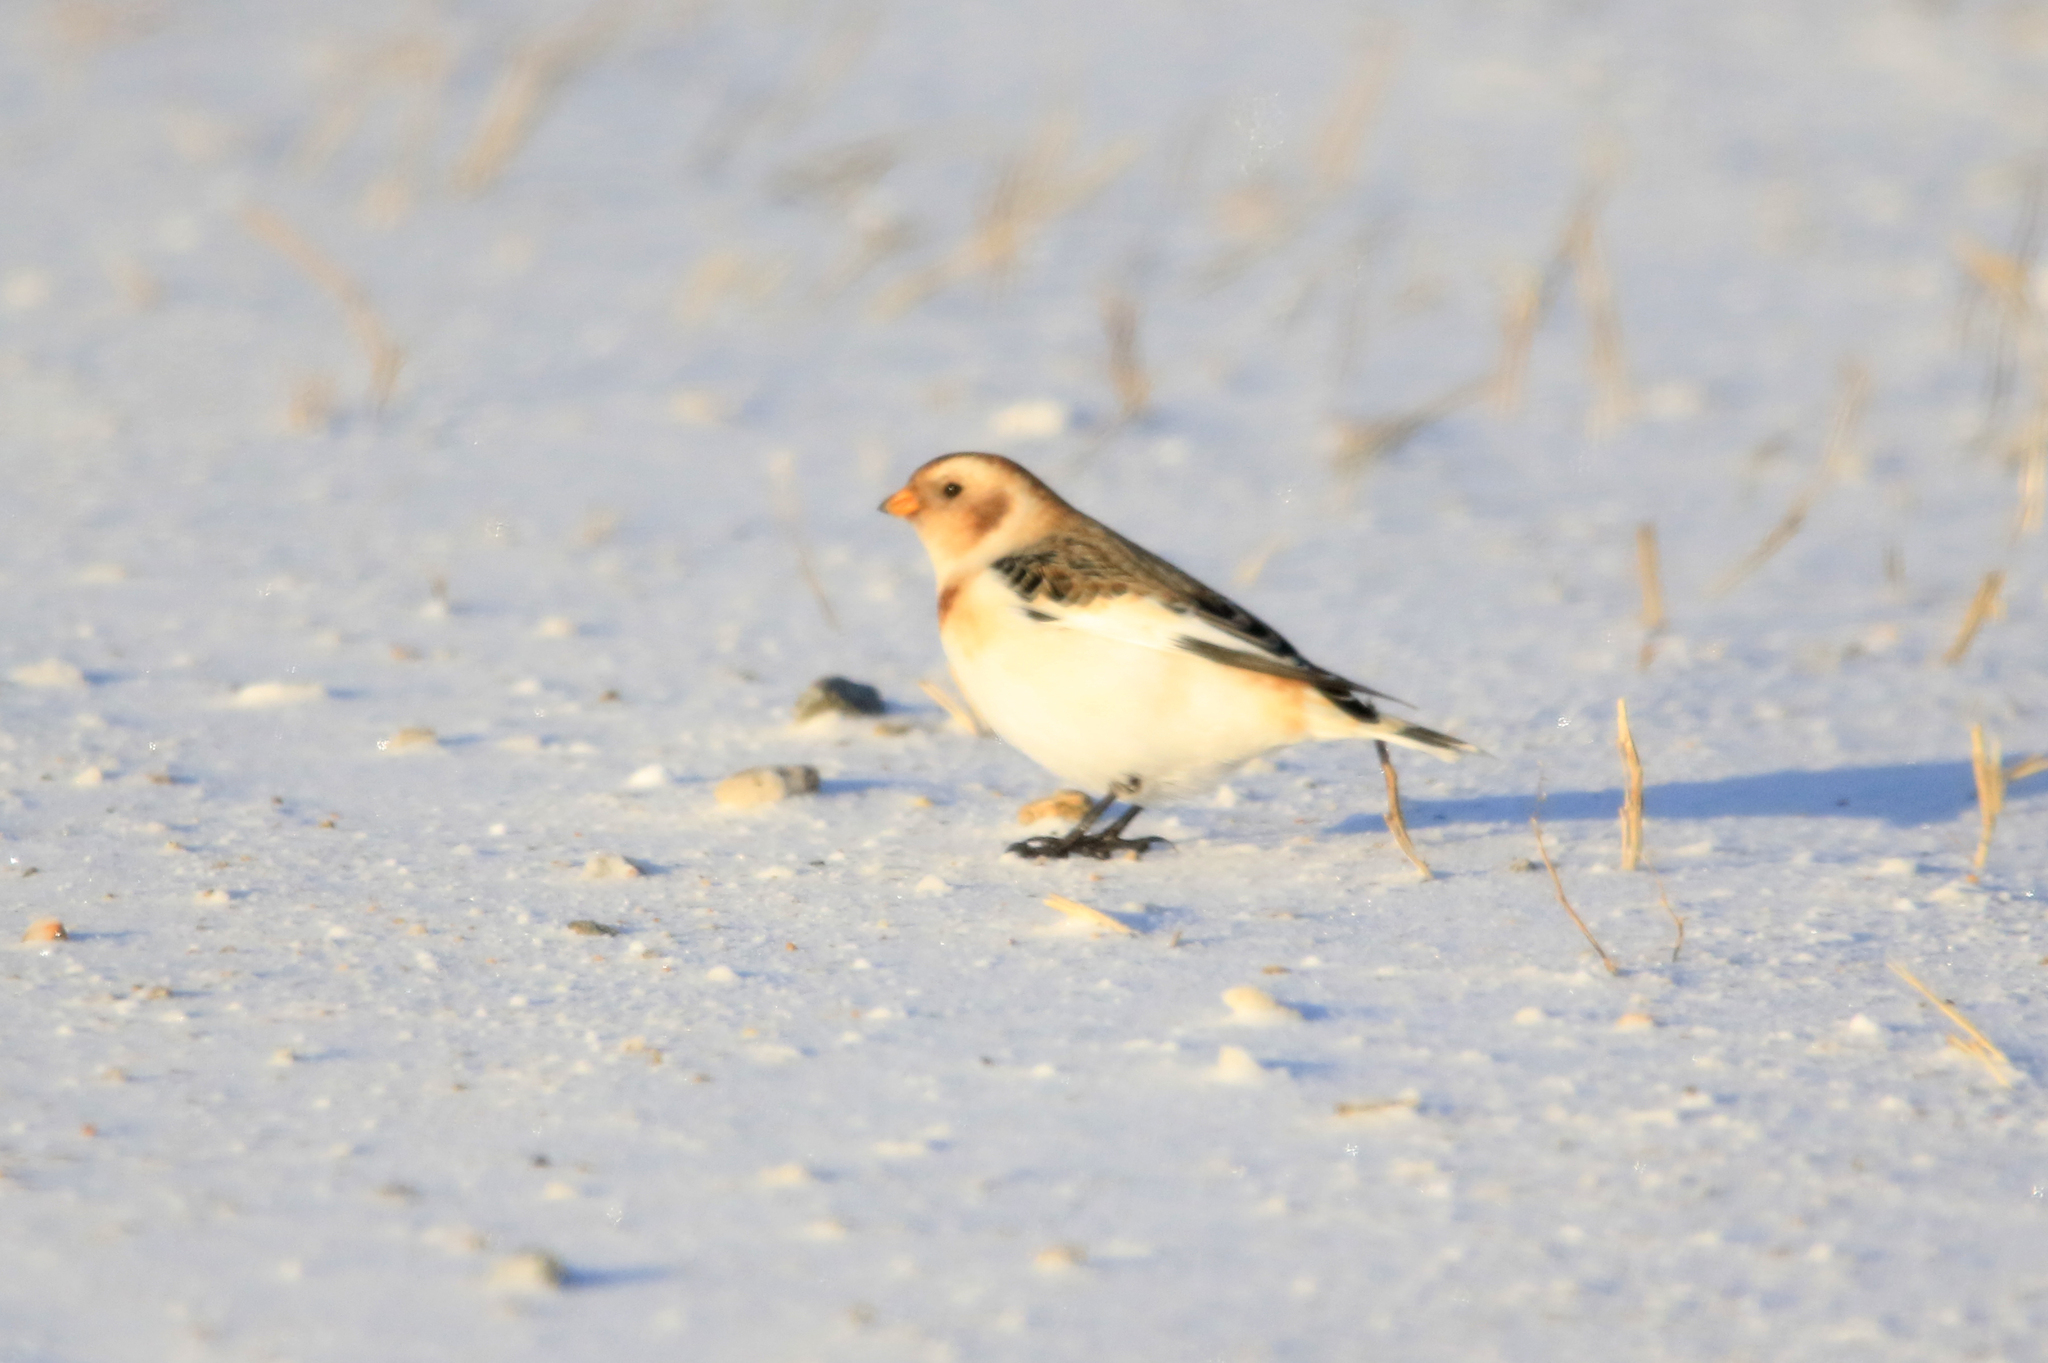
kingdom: Animalia
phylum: Chordata
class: Aves
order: Passeriformes
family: Calcariidae
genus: Plectrophenax
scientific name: Plectrophenax nivalis
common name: Snow bunting
